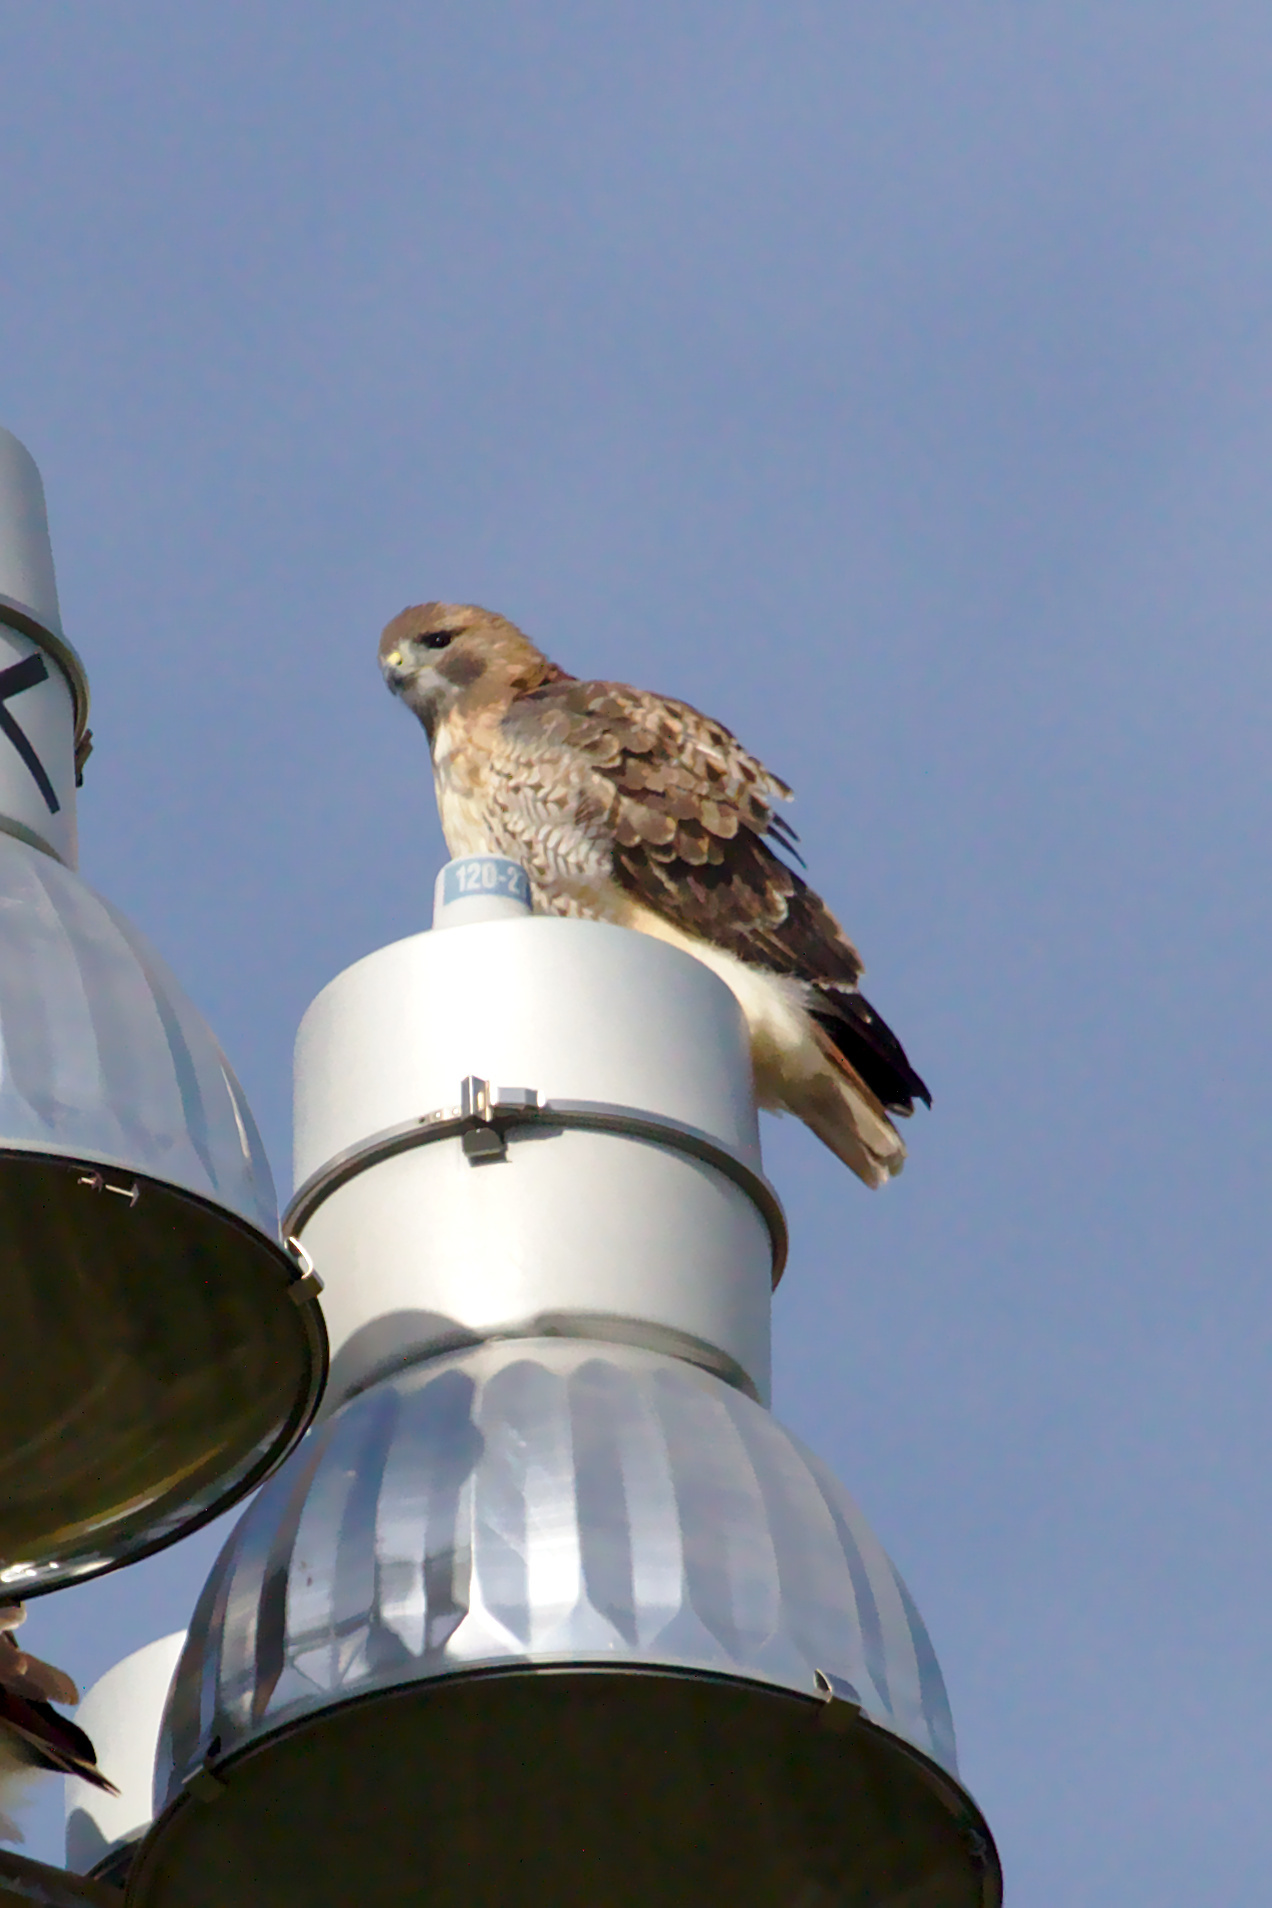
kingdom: Animalia
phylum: Chordata
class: Aves
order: Accipitriformes
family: Accipitridae
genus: Buteo
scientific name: Buteo jamaicensis
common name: Red-tailed hawk
